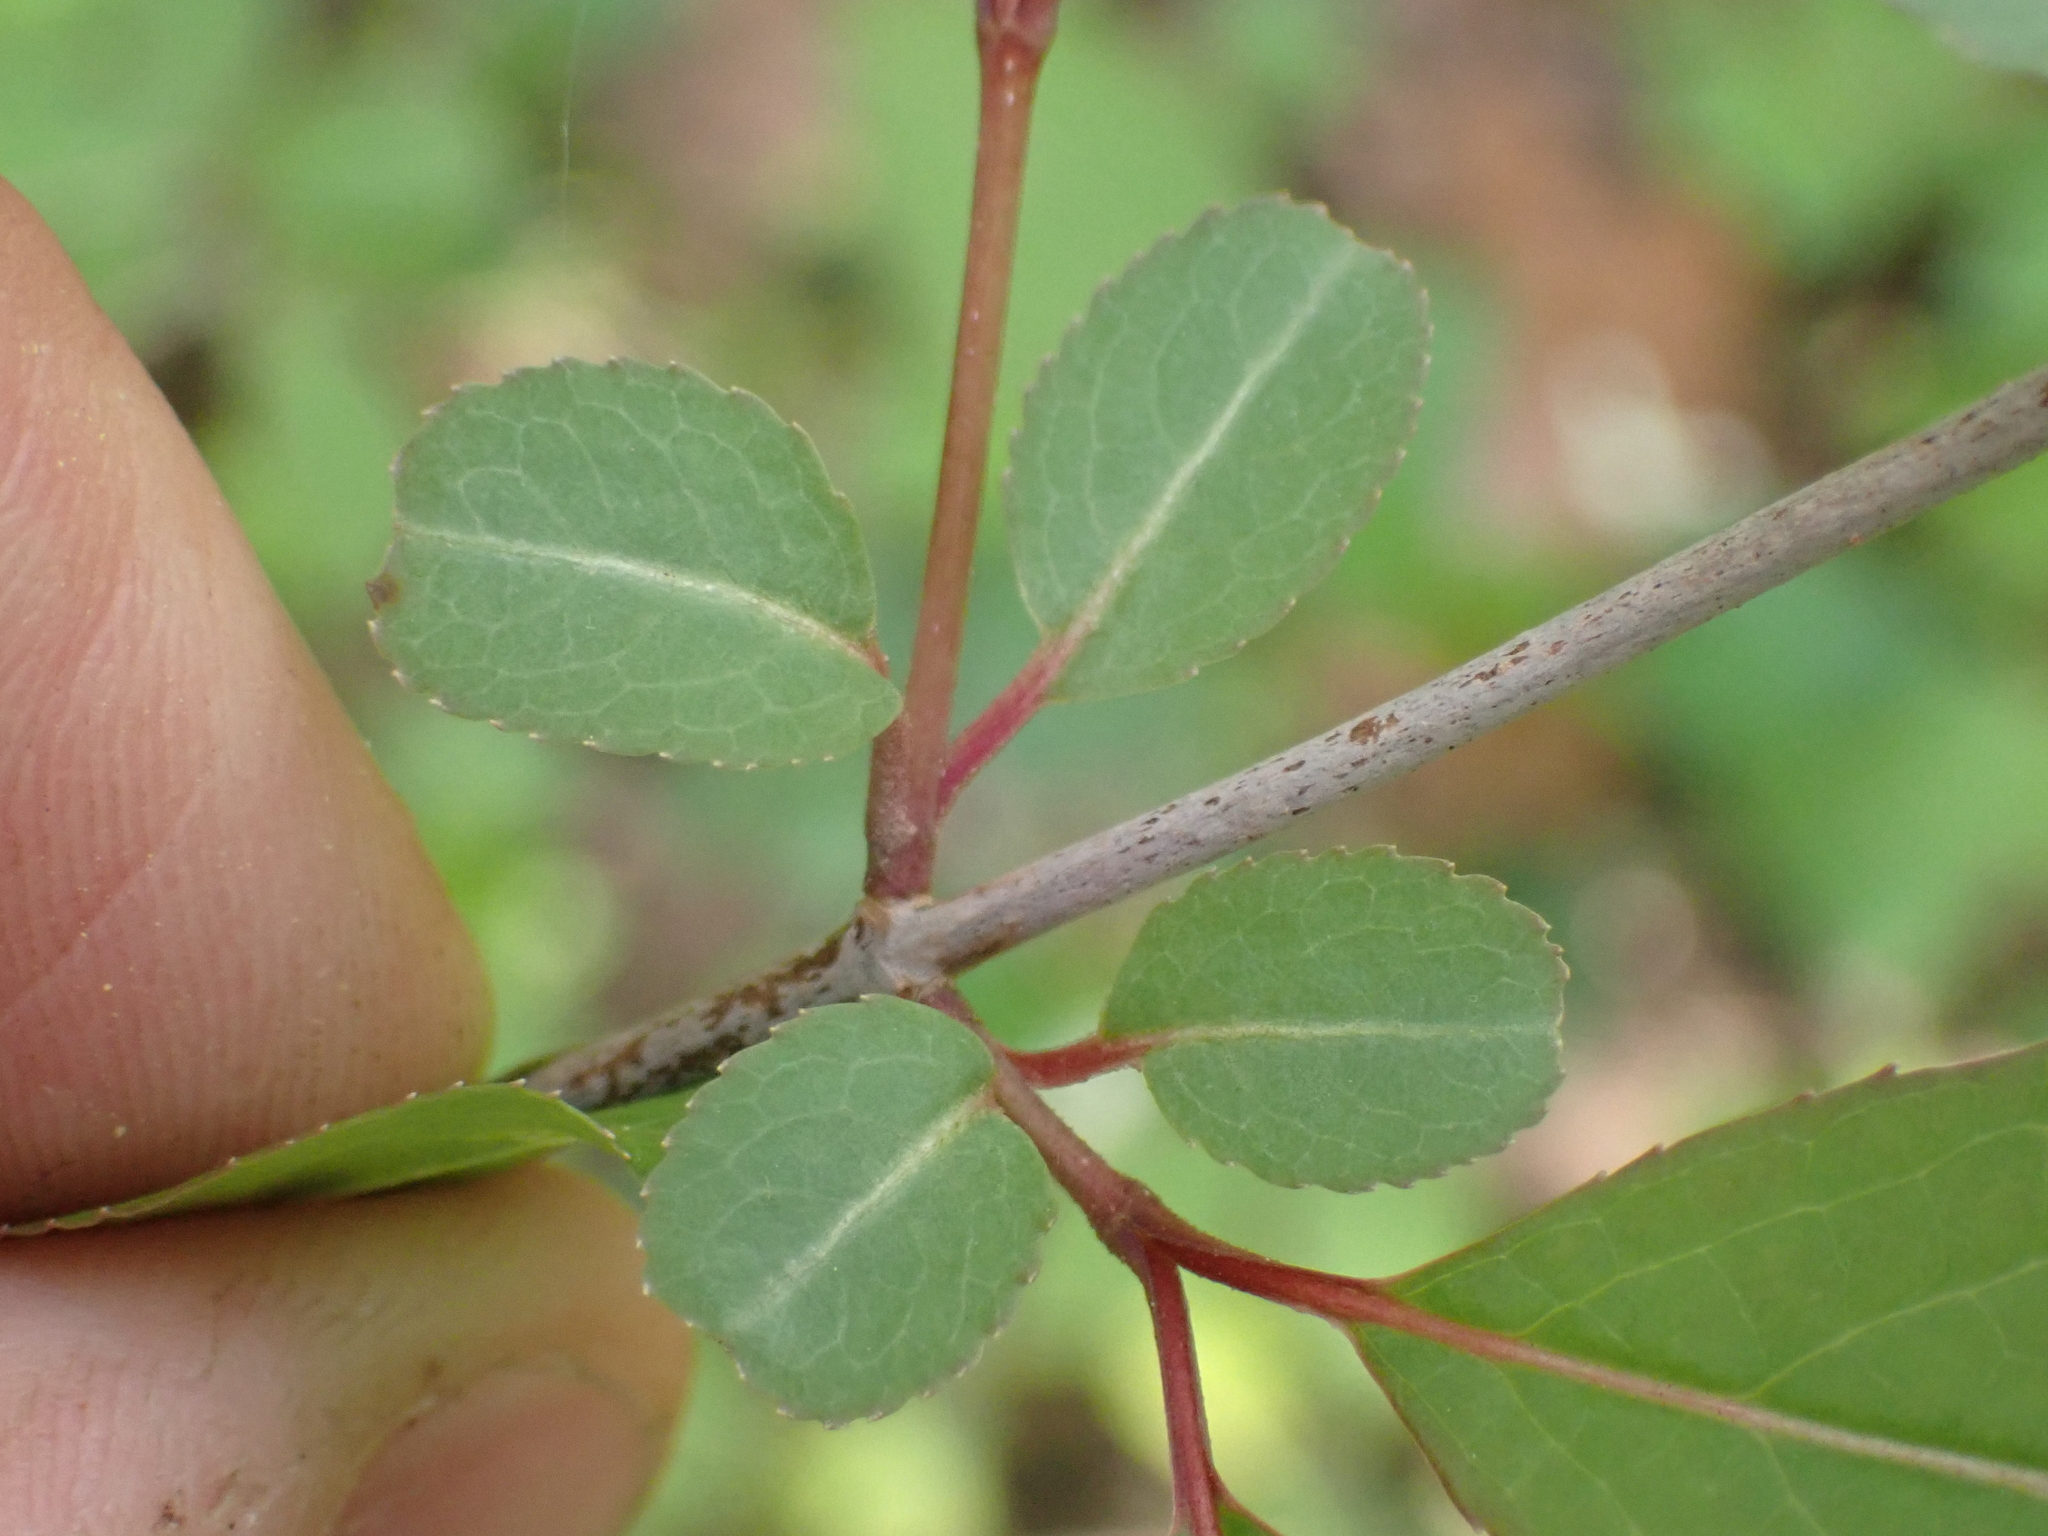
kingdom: Plantae
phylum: Tracheophyta
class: Magnoliopsida
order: Dipsacales
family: Viburnaceae
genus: Viburnum
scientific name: Viburnum prunifolium
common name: Black haw
